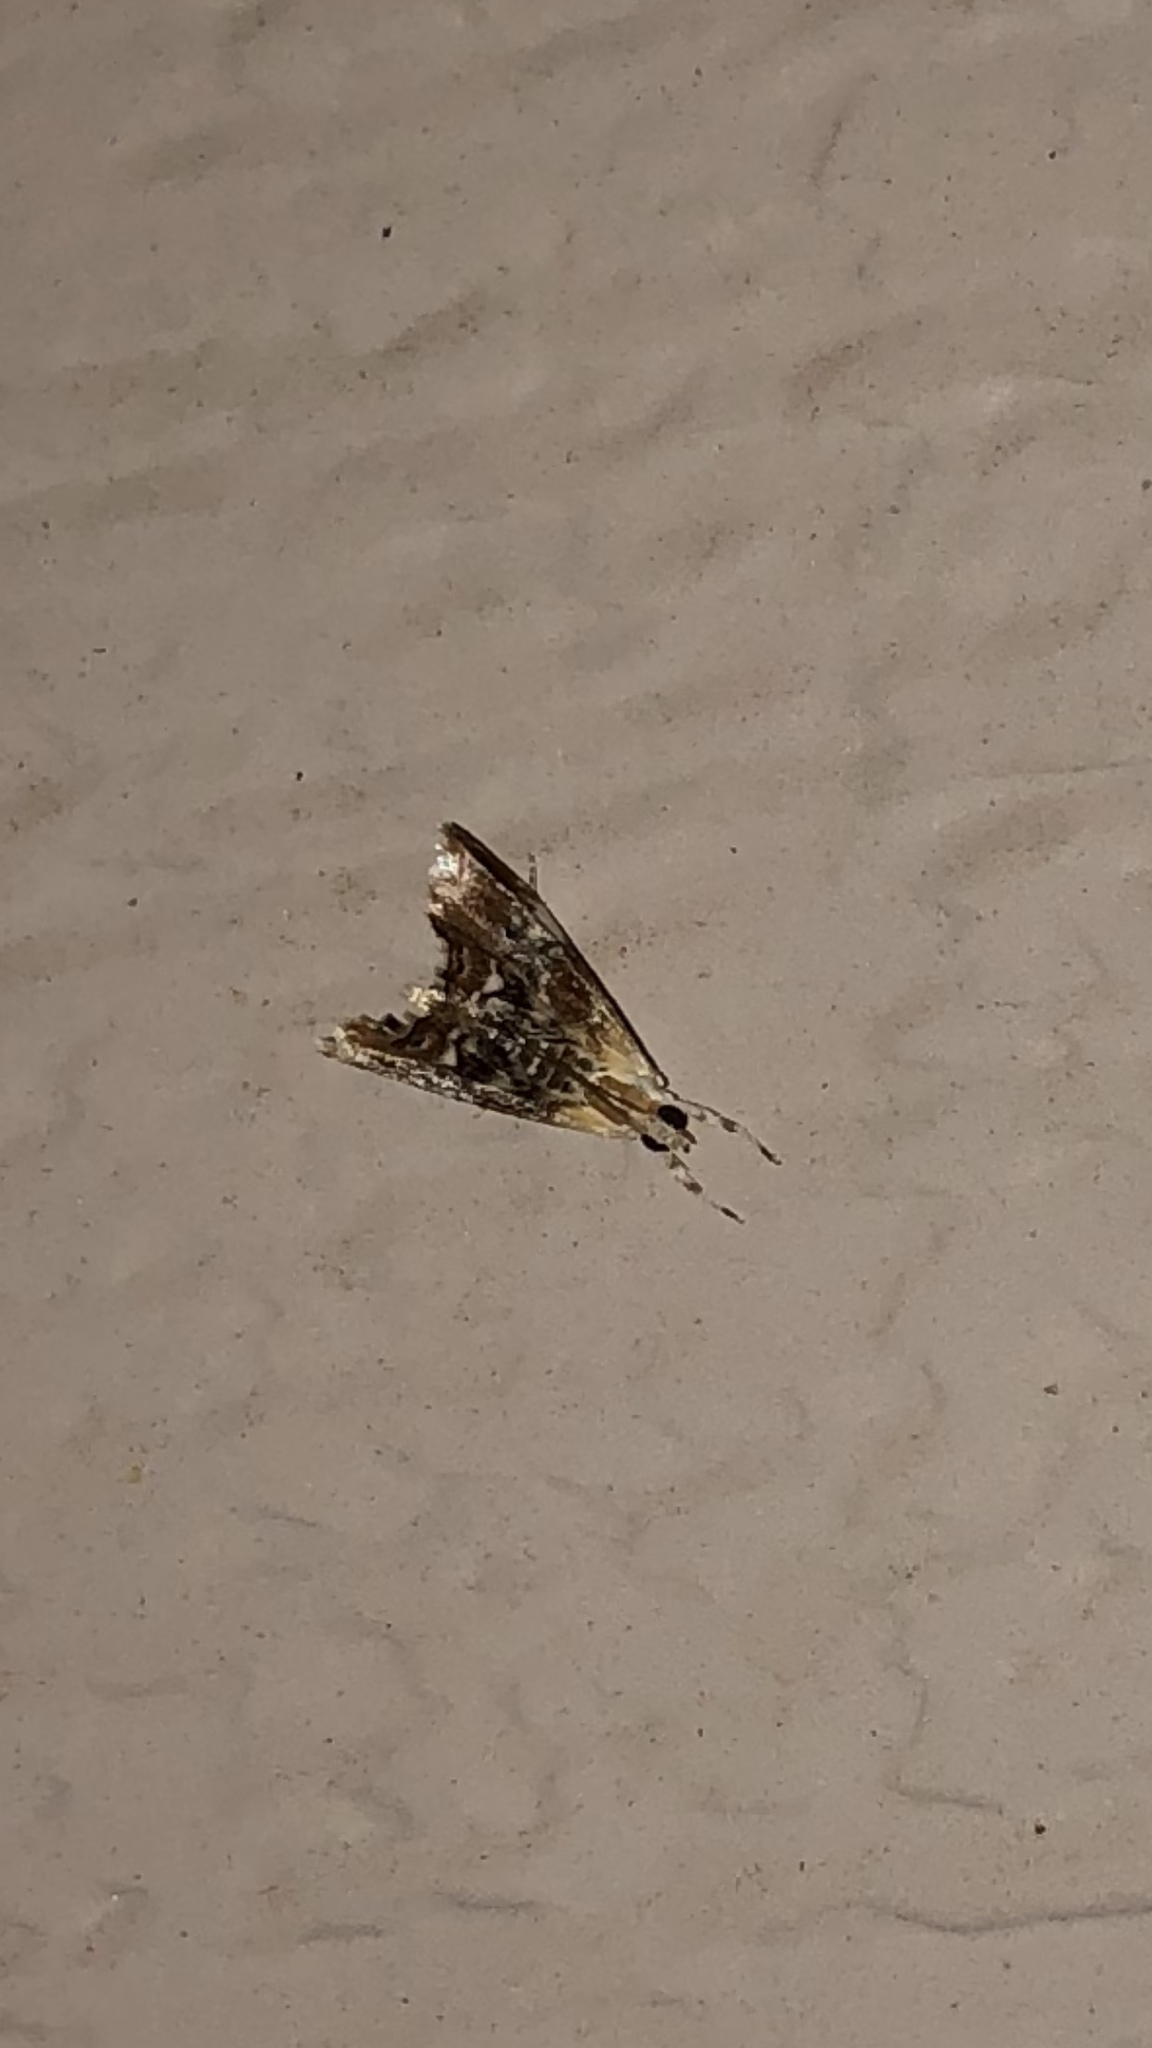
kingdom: Animalia
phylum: Arthropoda
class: Insecta
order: Lepidoptera
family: Crambidae
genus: Dicymolomia
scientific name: Dicymolomia julianalis
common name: Julia's dicymolomia moth
